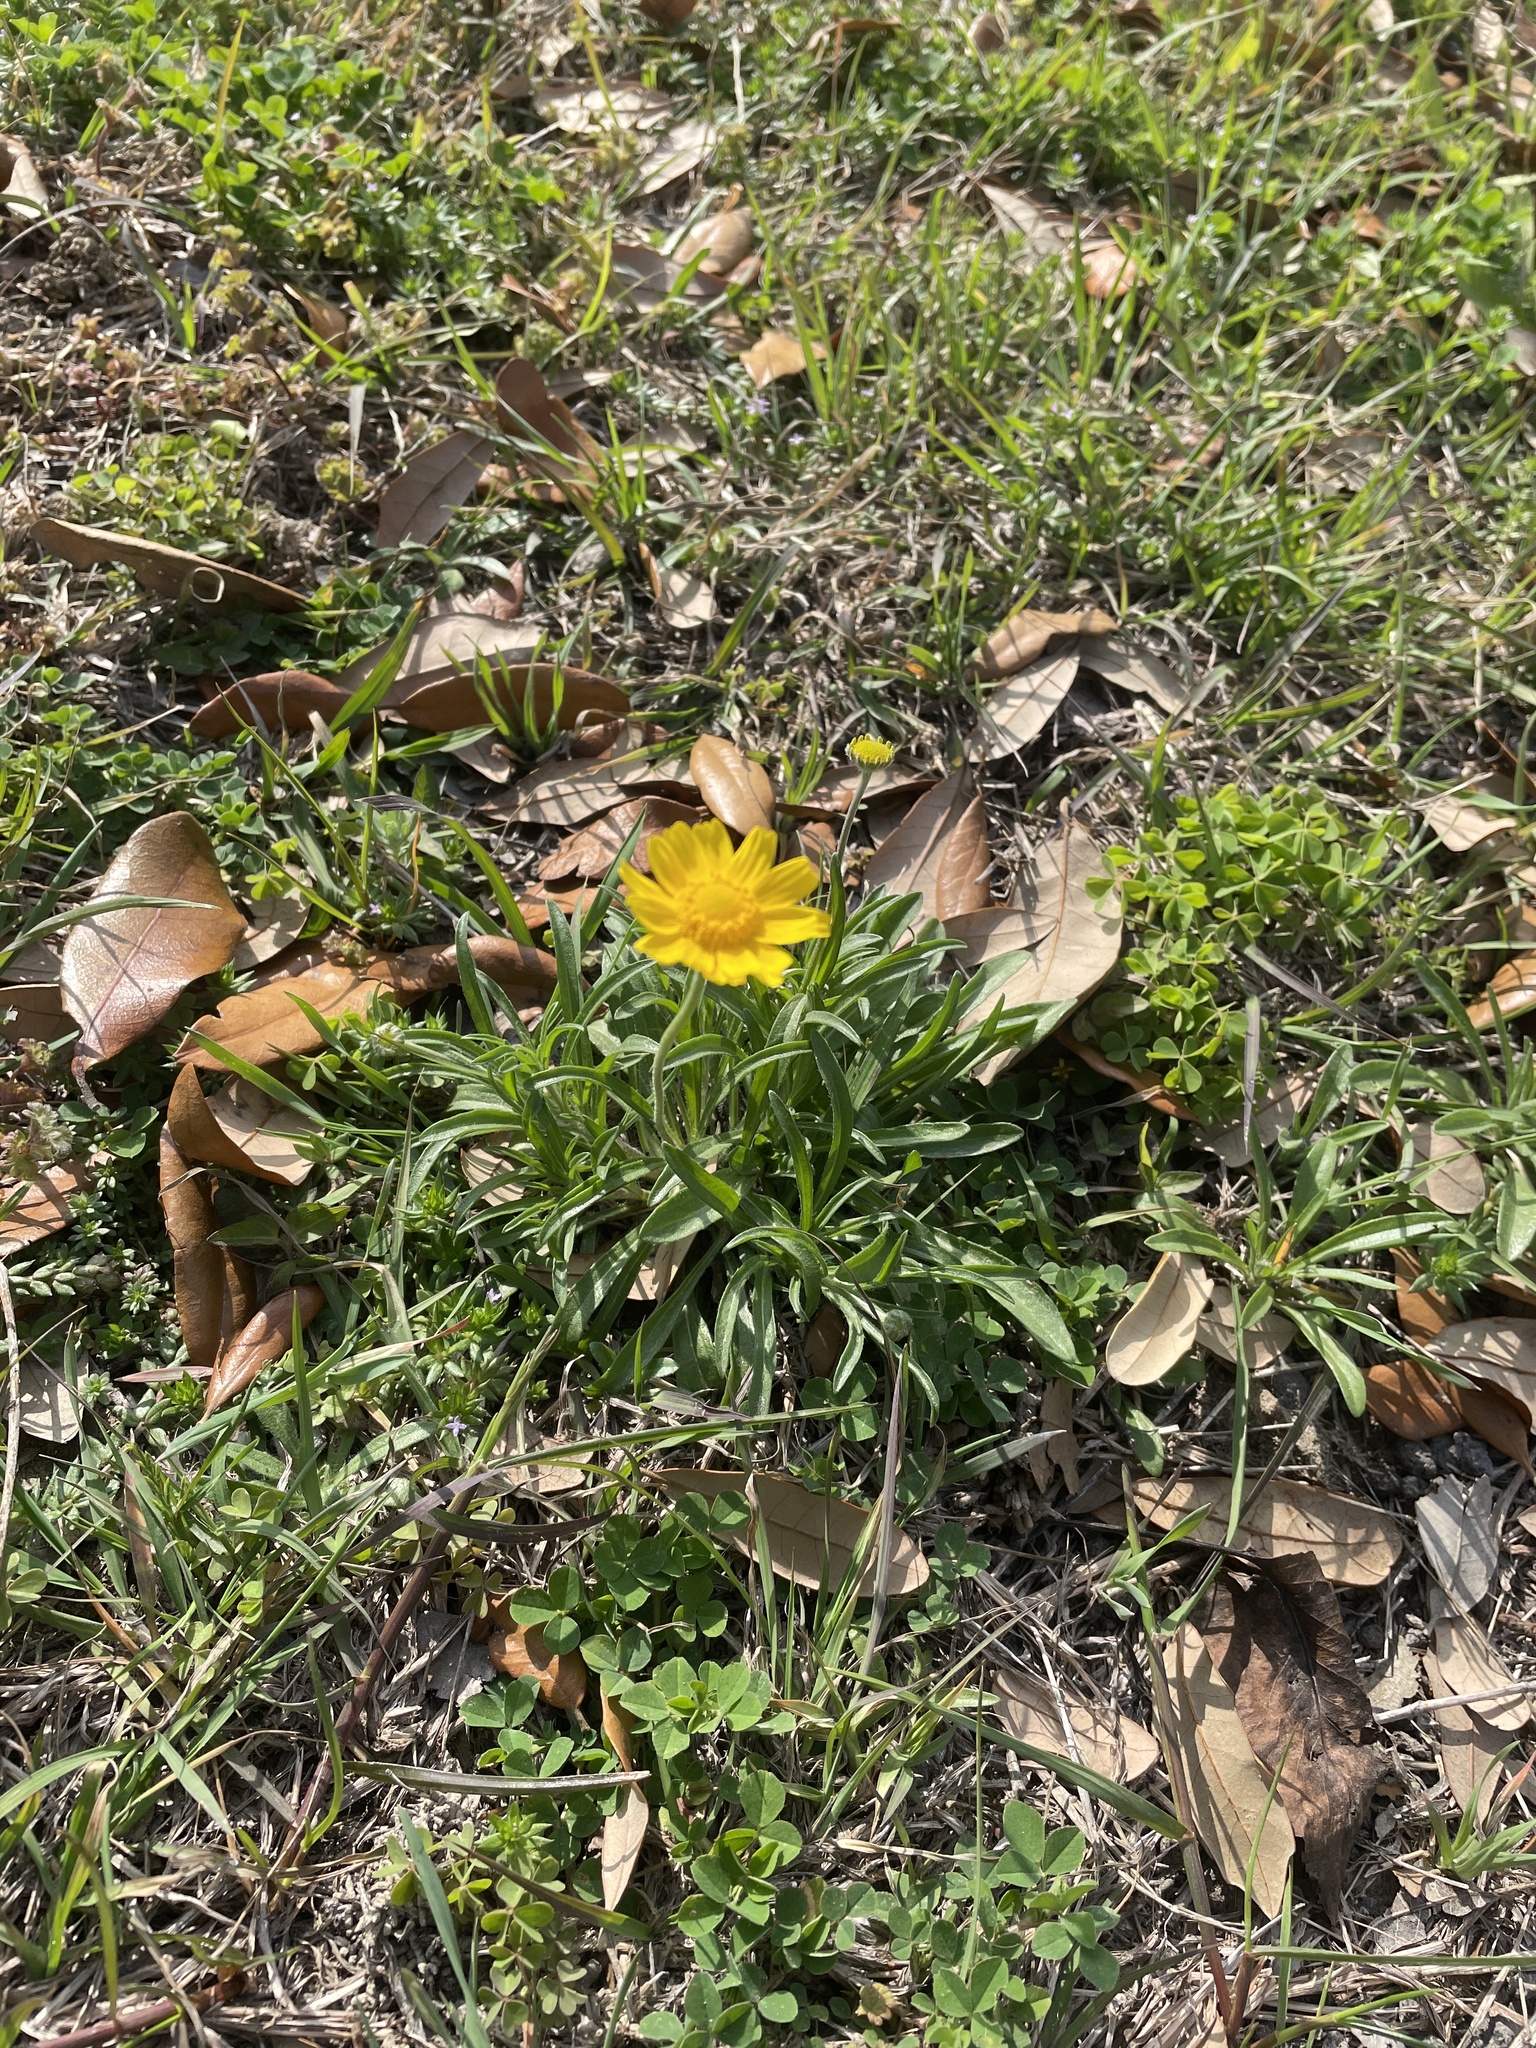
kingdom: Plantae
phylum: Tracheophyta
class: Magnoliopsida
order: Asterales
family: Asteraceae
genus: Tetraneuris
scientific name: Tetraneuris linearifolia
